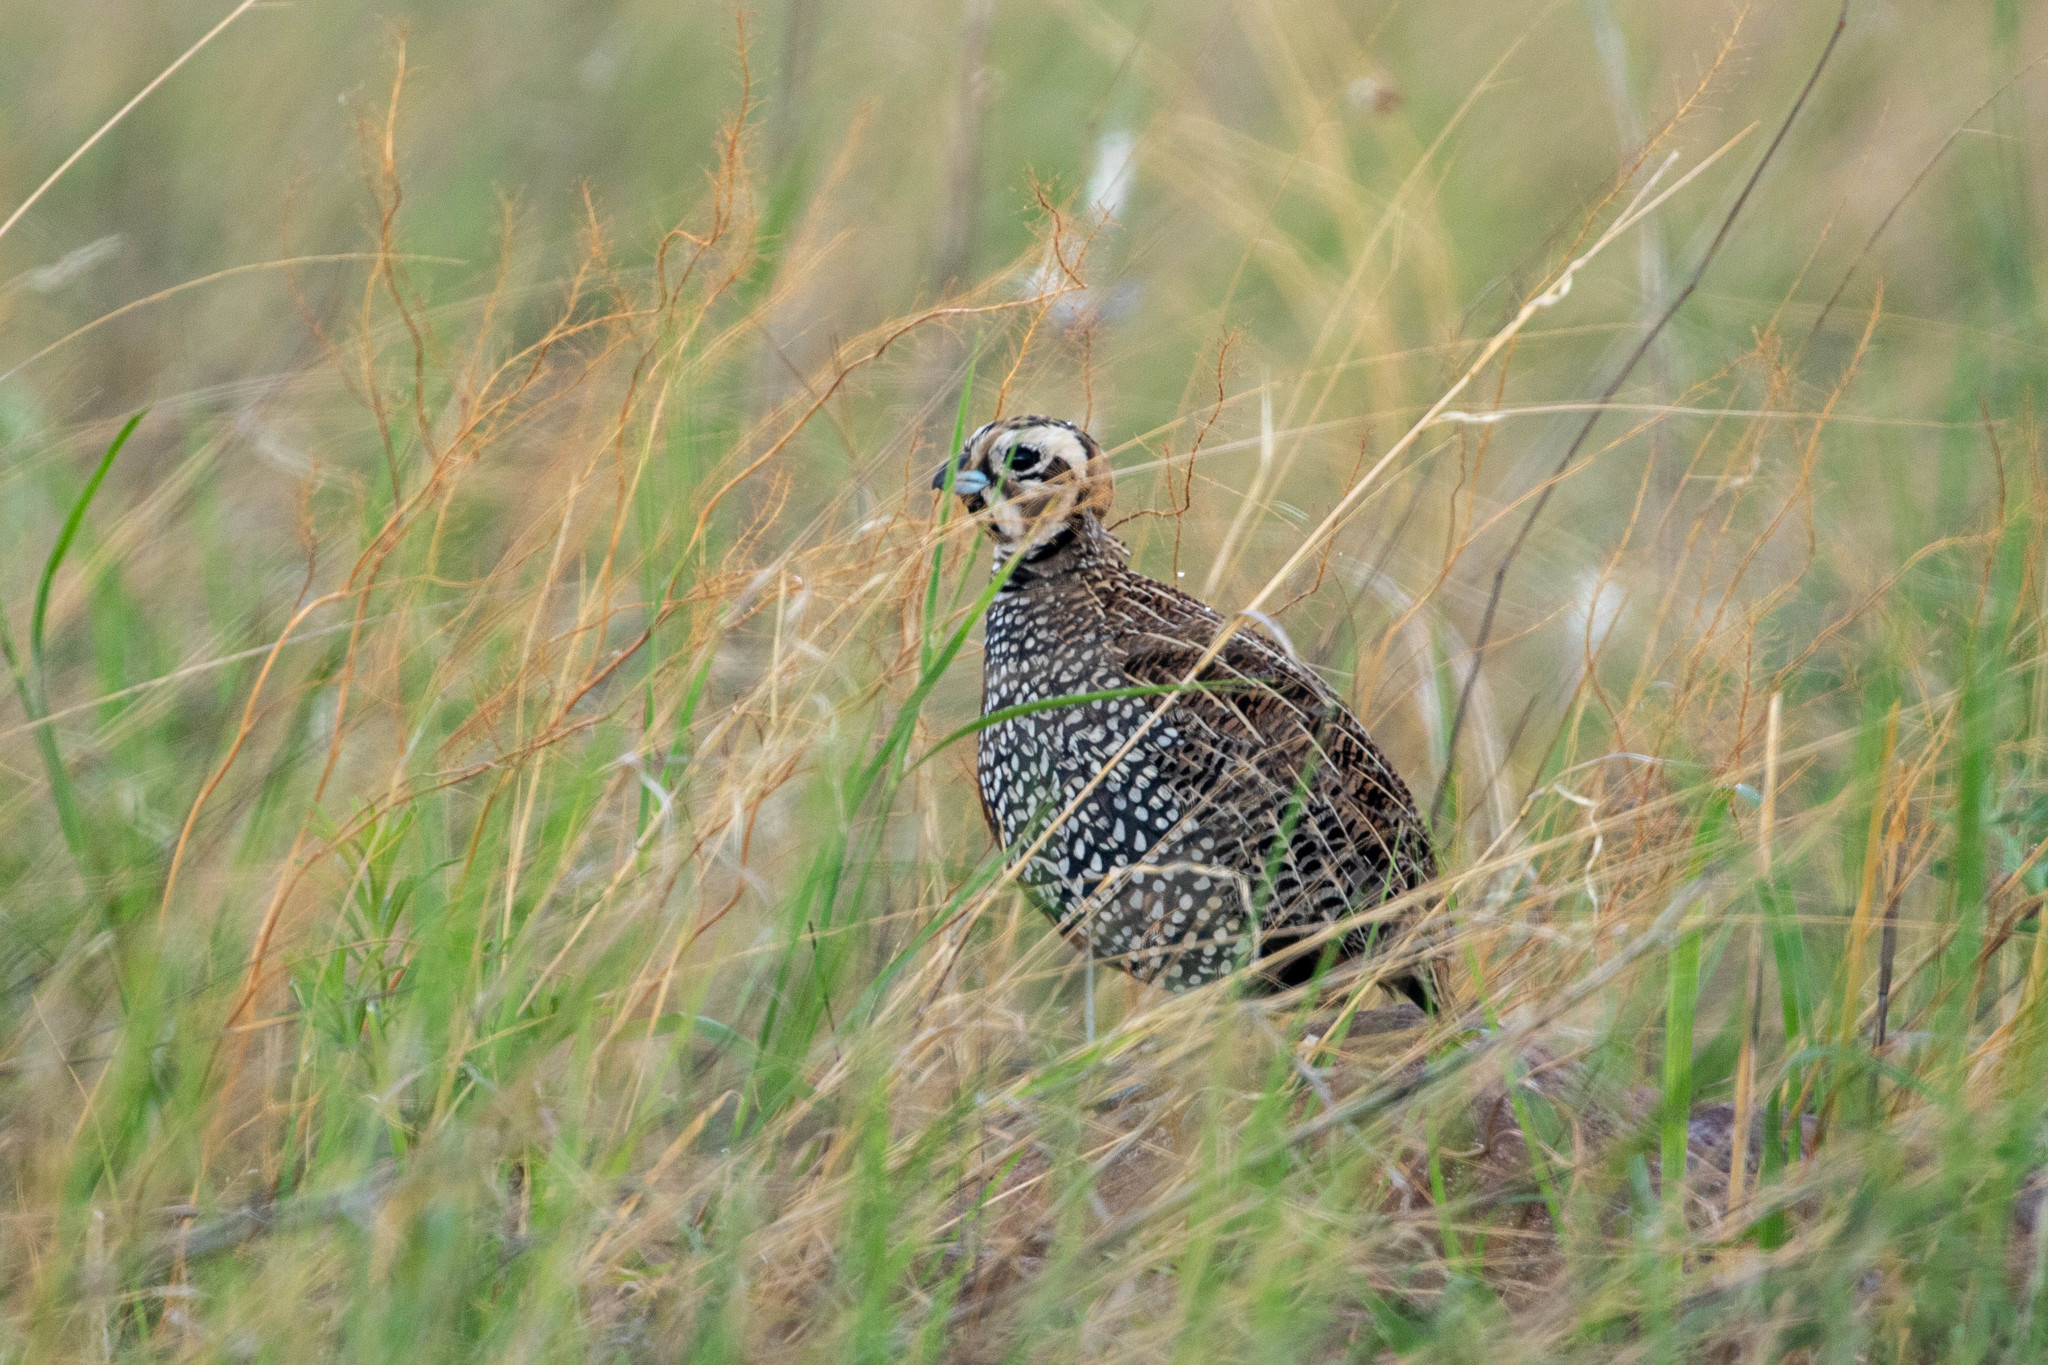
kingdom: Animalia
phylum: Chordata
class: Aves
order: Galliformes
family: Odontophoridae
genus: Cyrtonyx
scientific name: Cyrtonyx montezumae
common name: Montezuma quail
